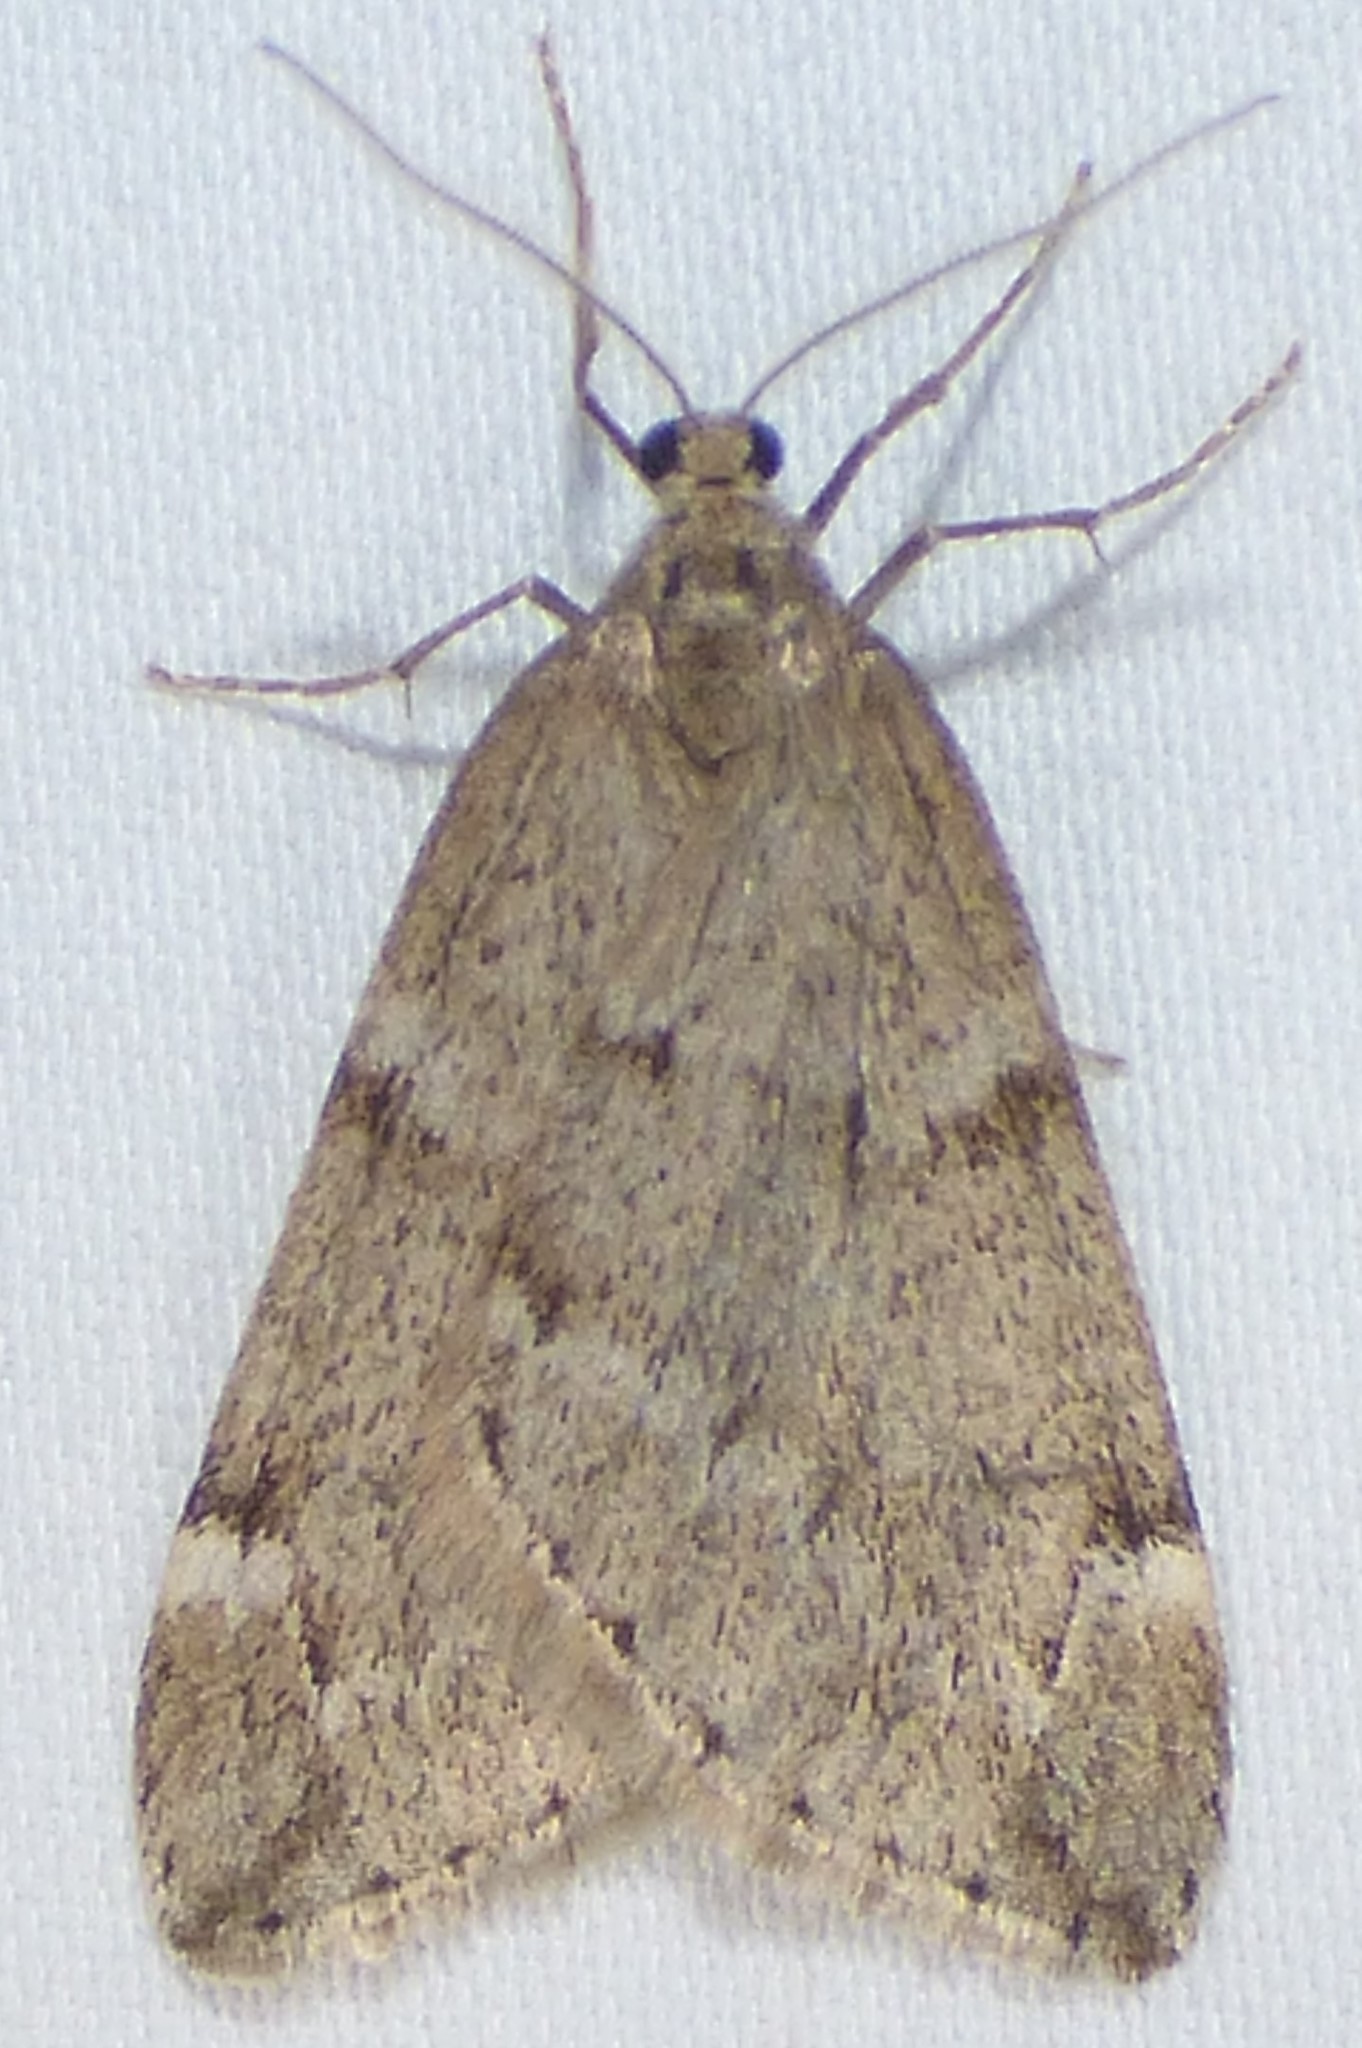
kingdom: Animalia
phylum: Arthropoda
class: Insecta
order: Lepidoptera
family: Geometridae
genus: Alsophila
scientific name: Alsophila pometaria
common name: Fall cankerworm
